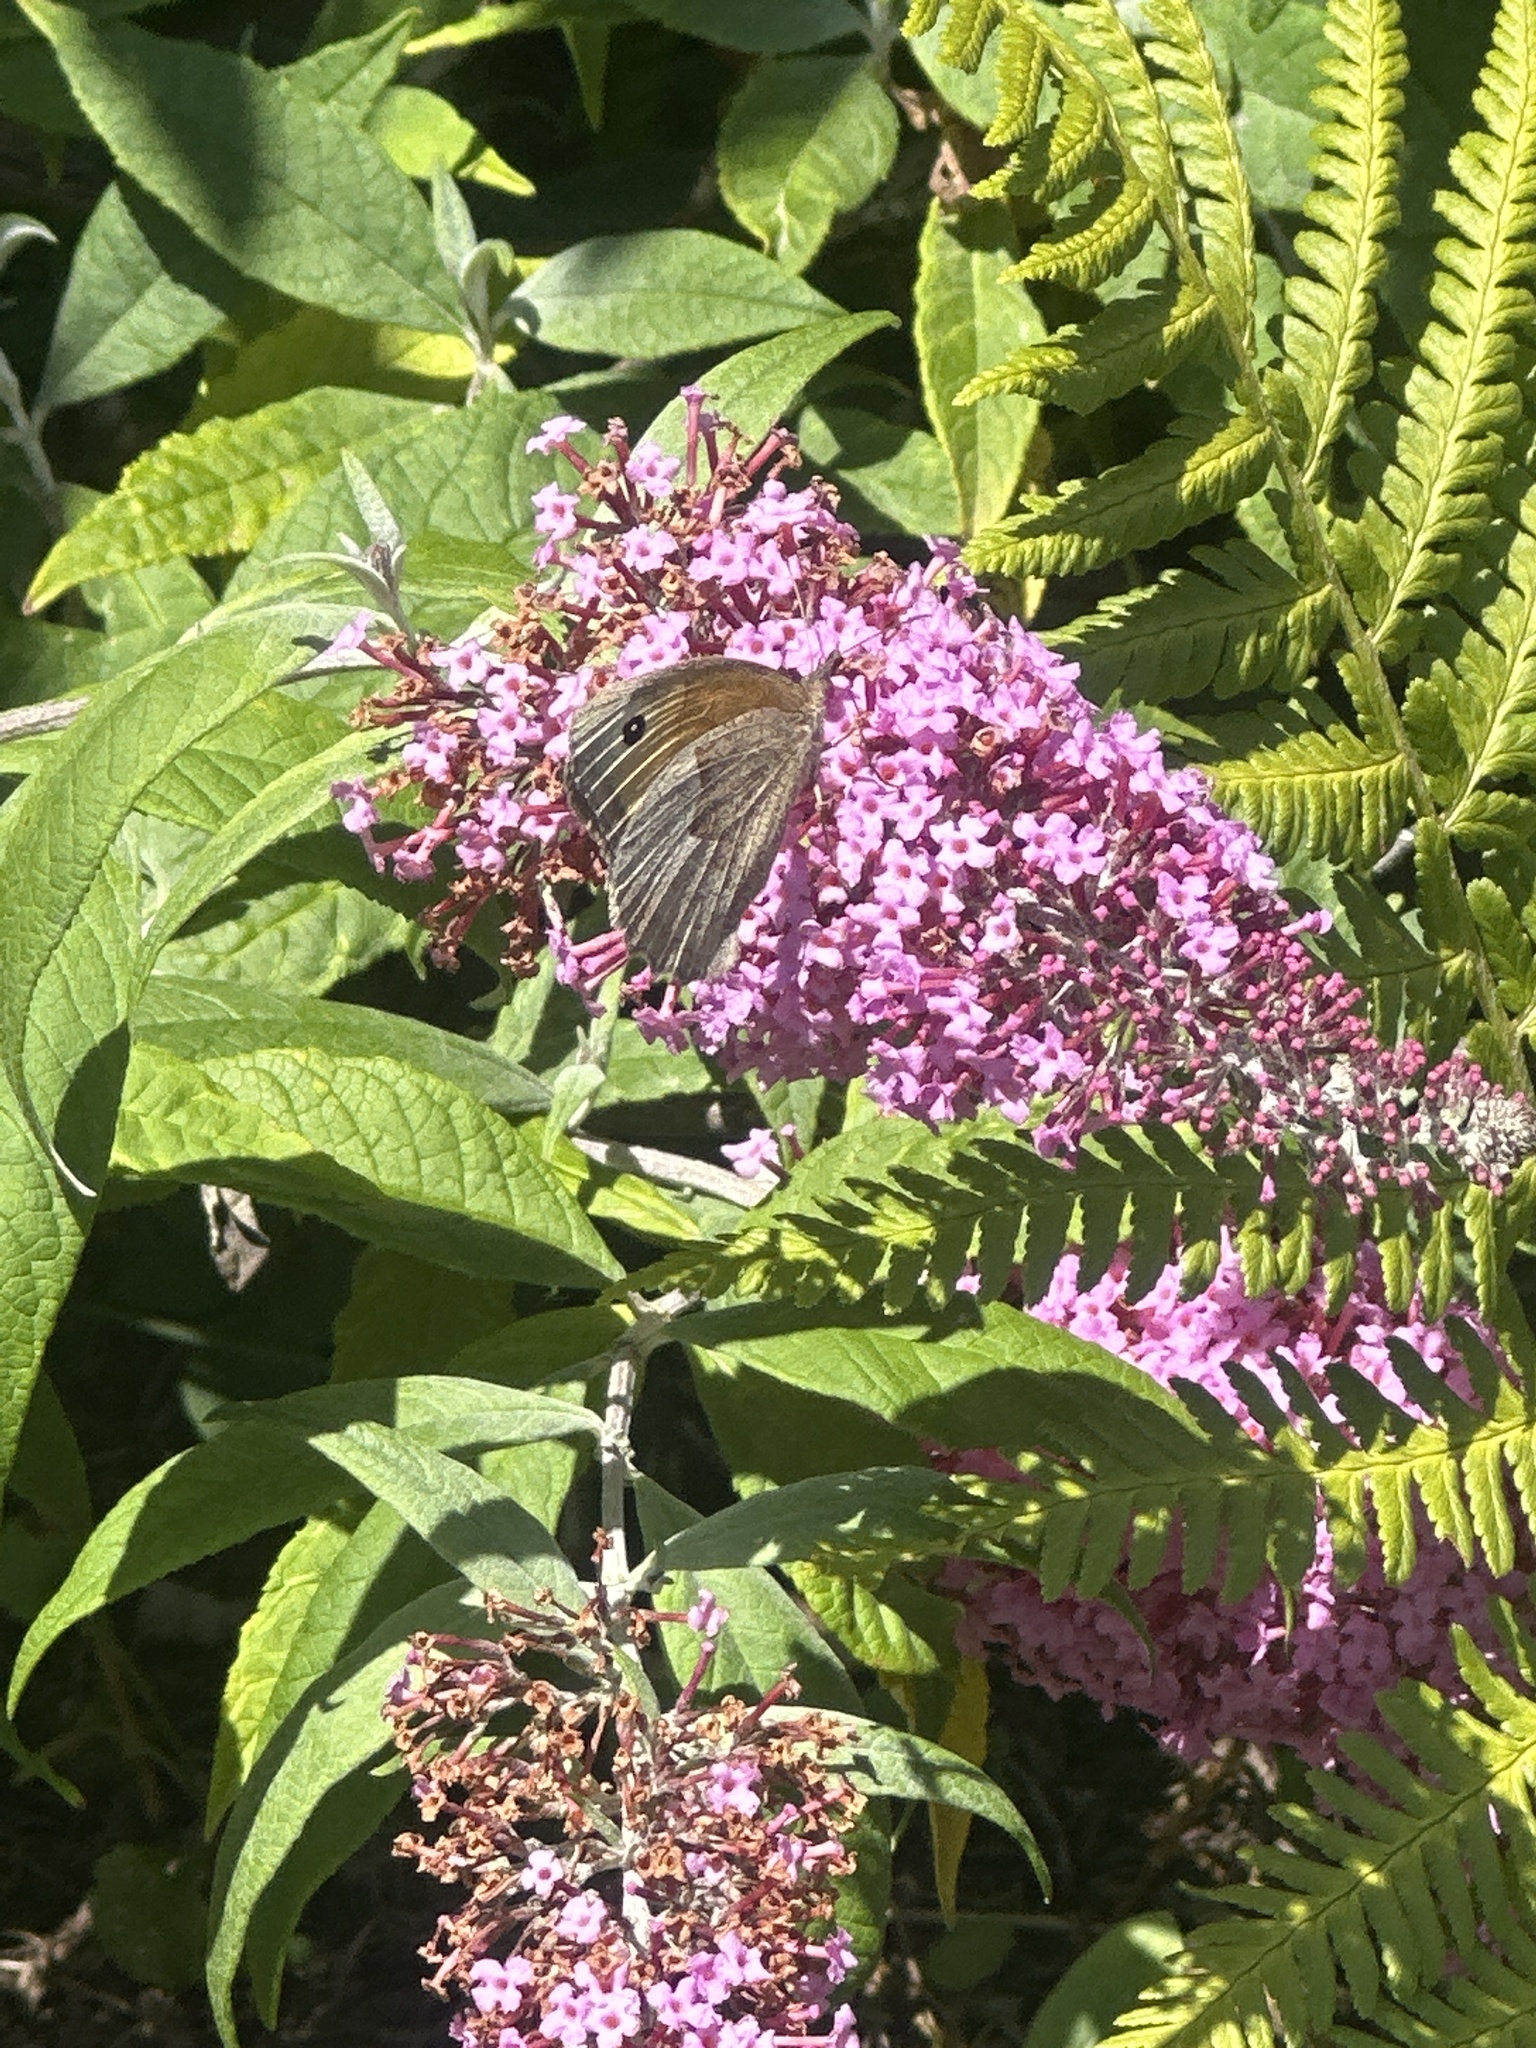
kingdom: Animalia
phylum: Arthropoda
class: Insecta
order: Lepidoptera
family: Nymphalidae
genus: Maniola
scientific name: Maniola jurtina
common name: Meadow brown
